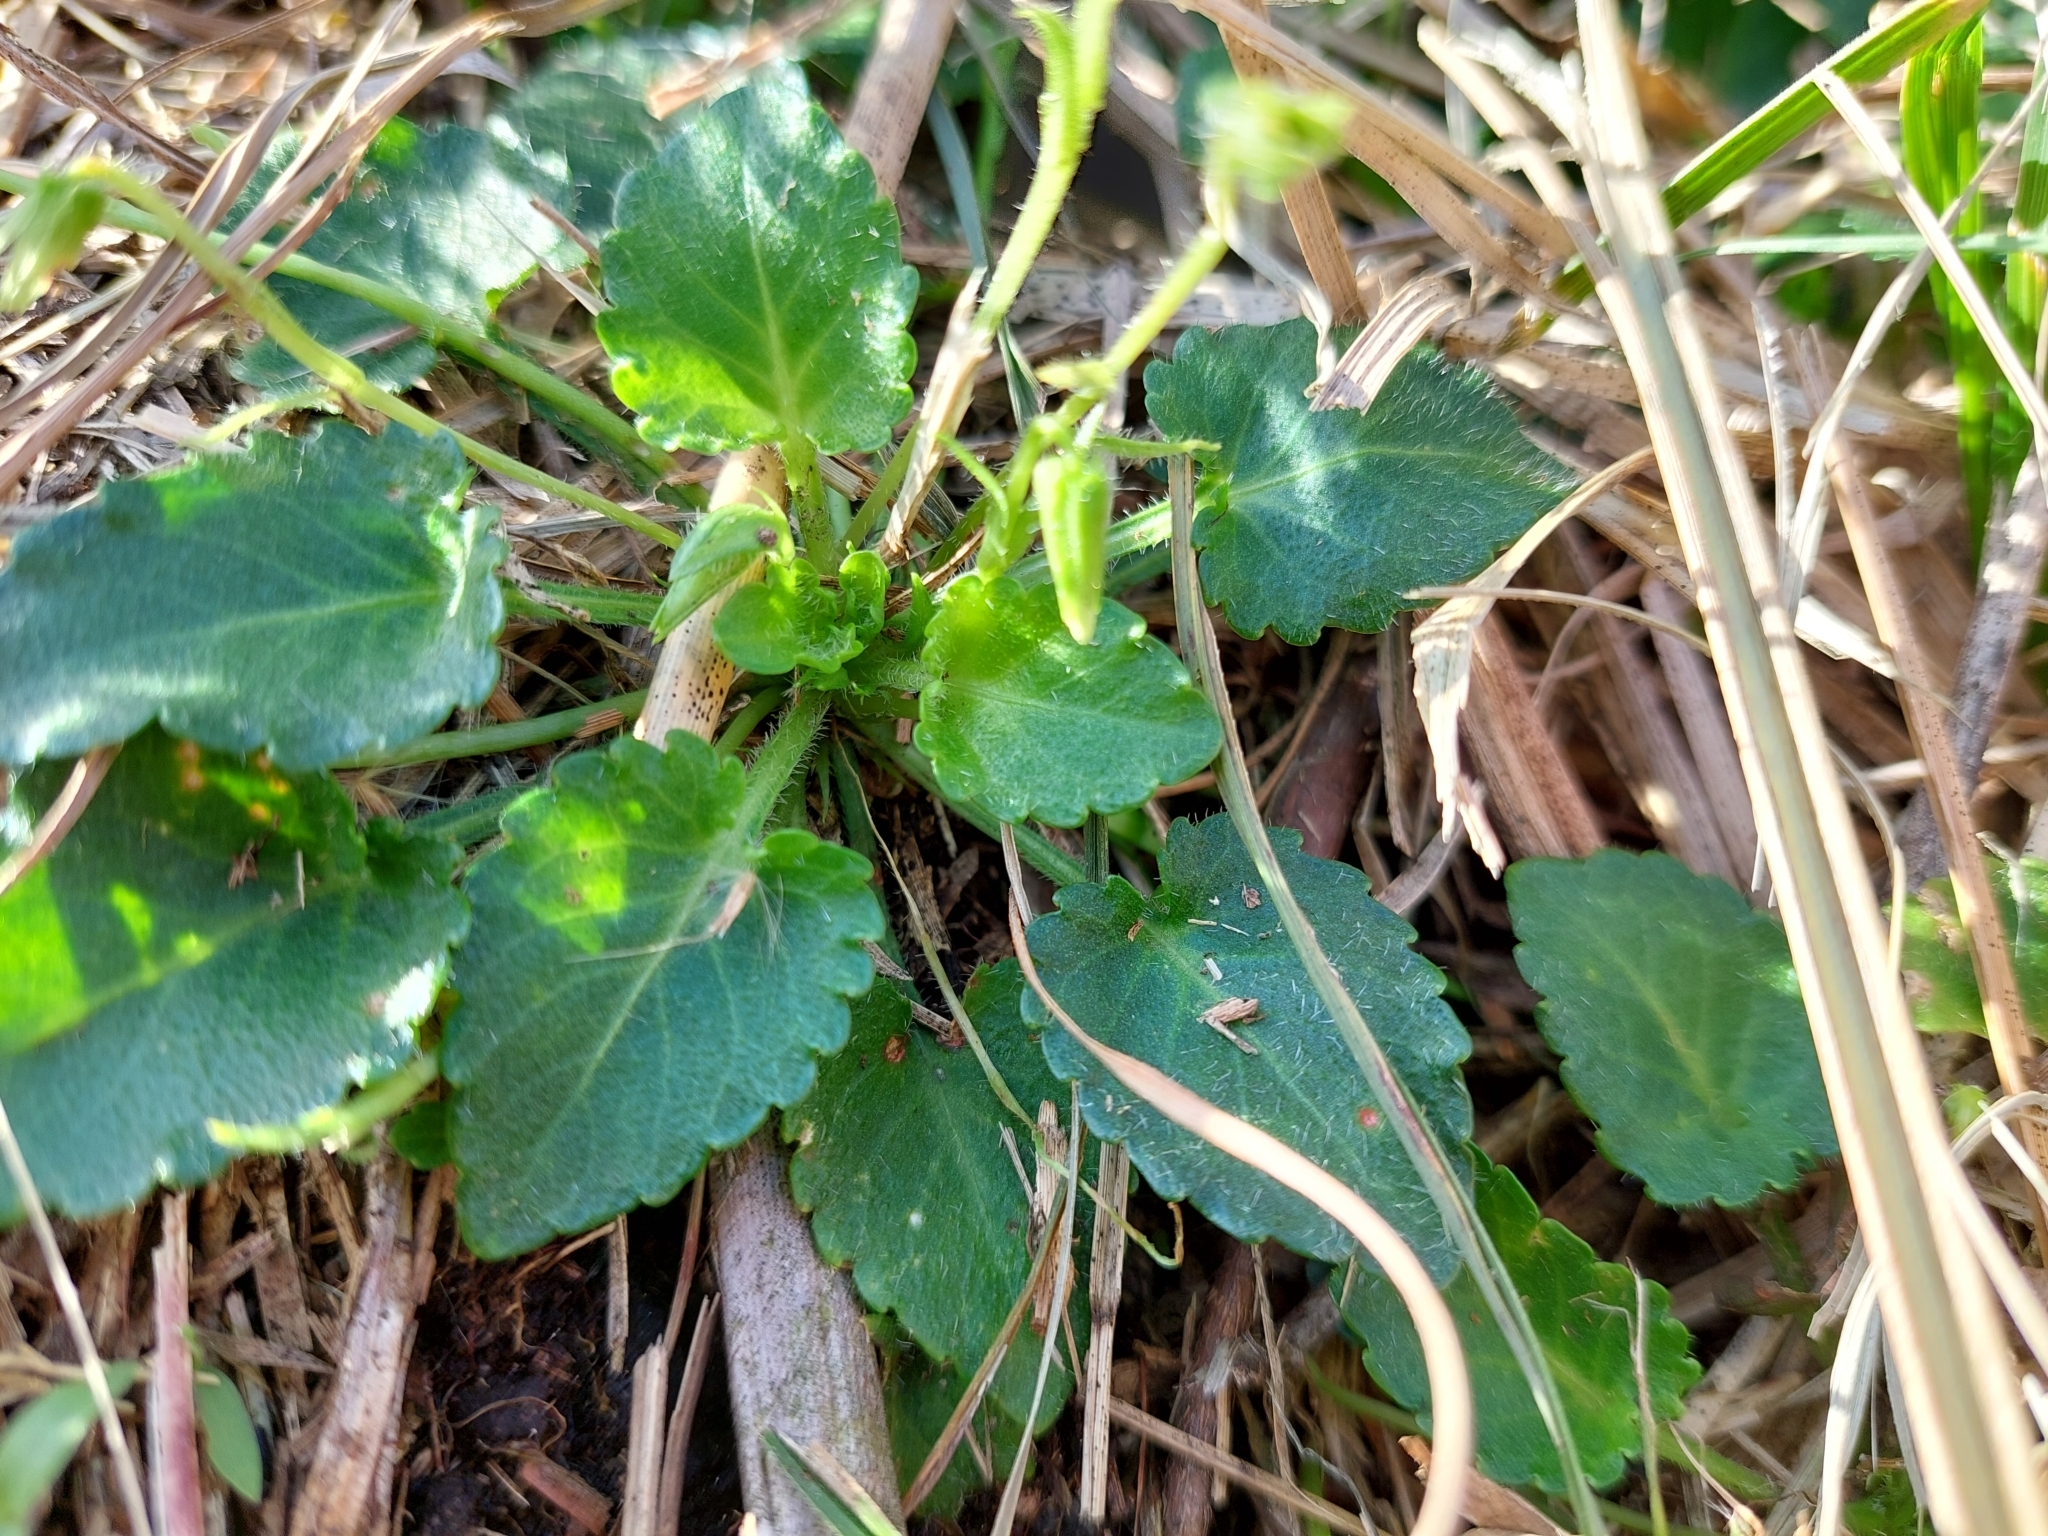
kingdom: Plantae
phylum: Tracheophyta
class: Magnoliopsida
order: Malpighiales
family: Violaceae
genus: Viola
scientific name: Viola nagasawae
